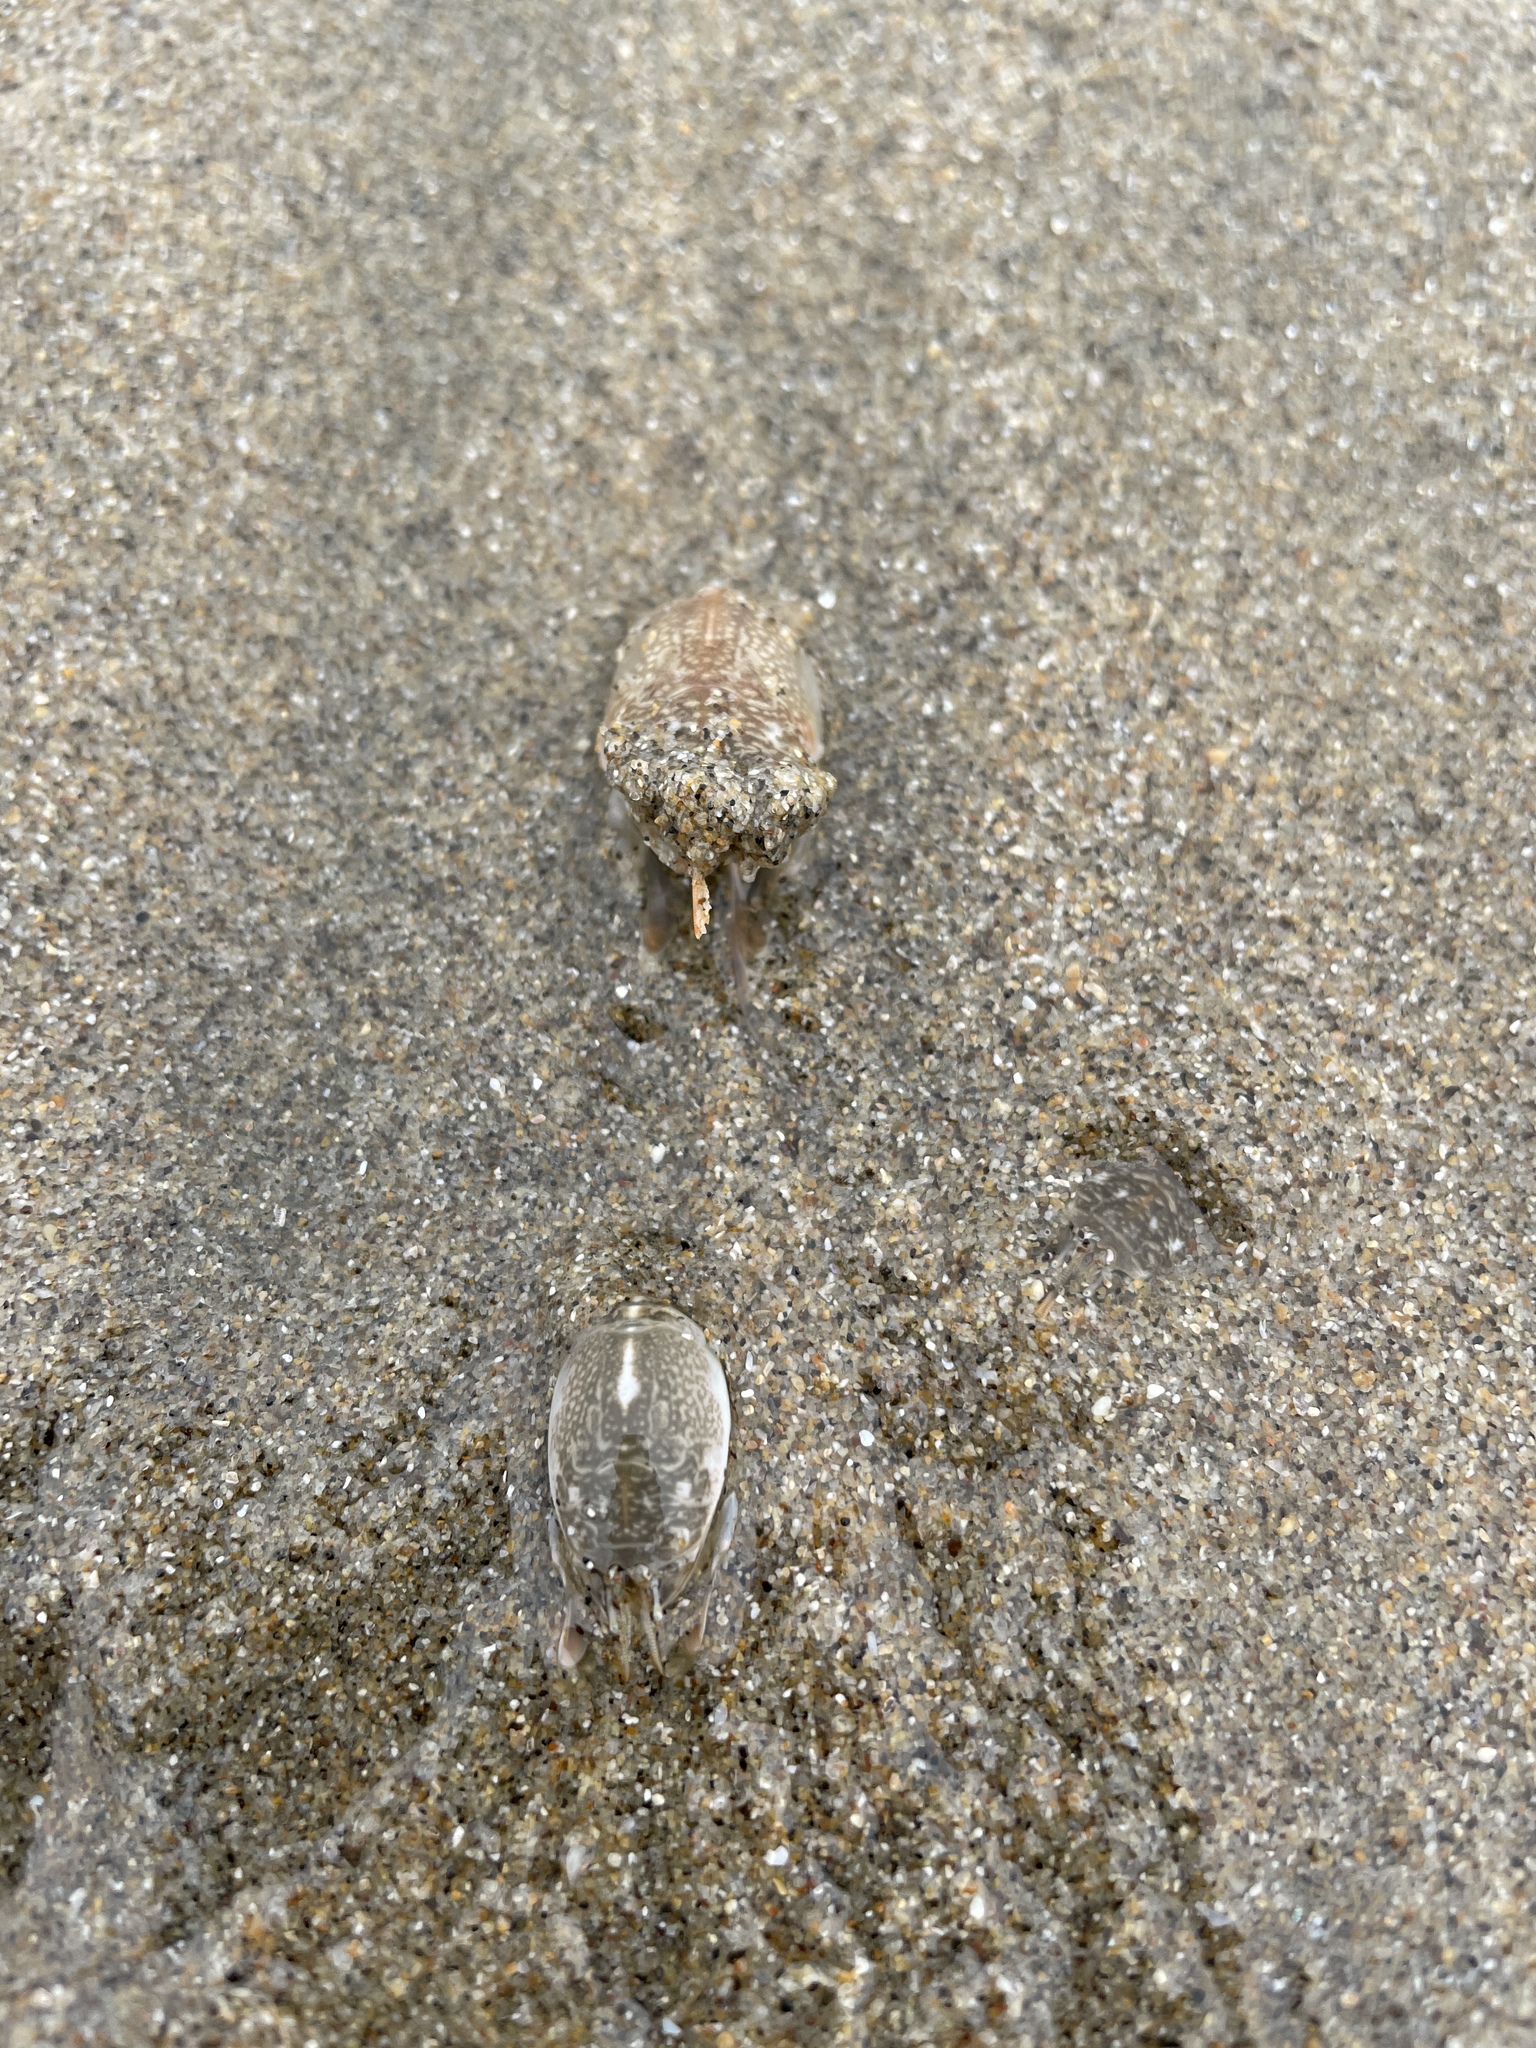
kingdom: Animalia
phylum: Arthropoda
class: Malacostraca
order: Decapoda
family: Hippidae
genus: Emerita
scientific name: Emerita analoga
